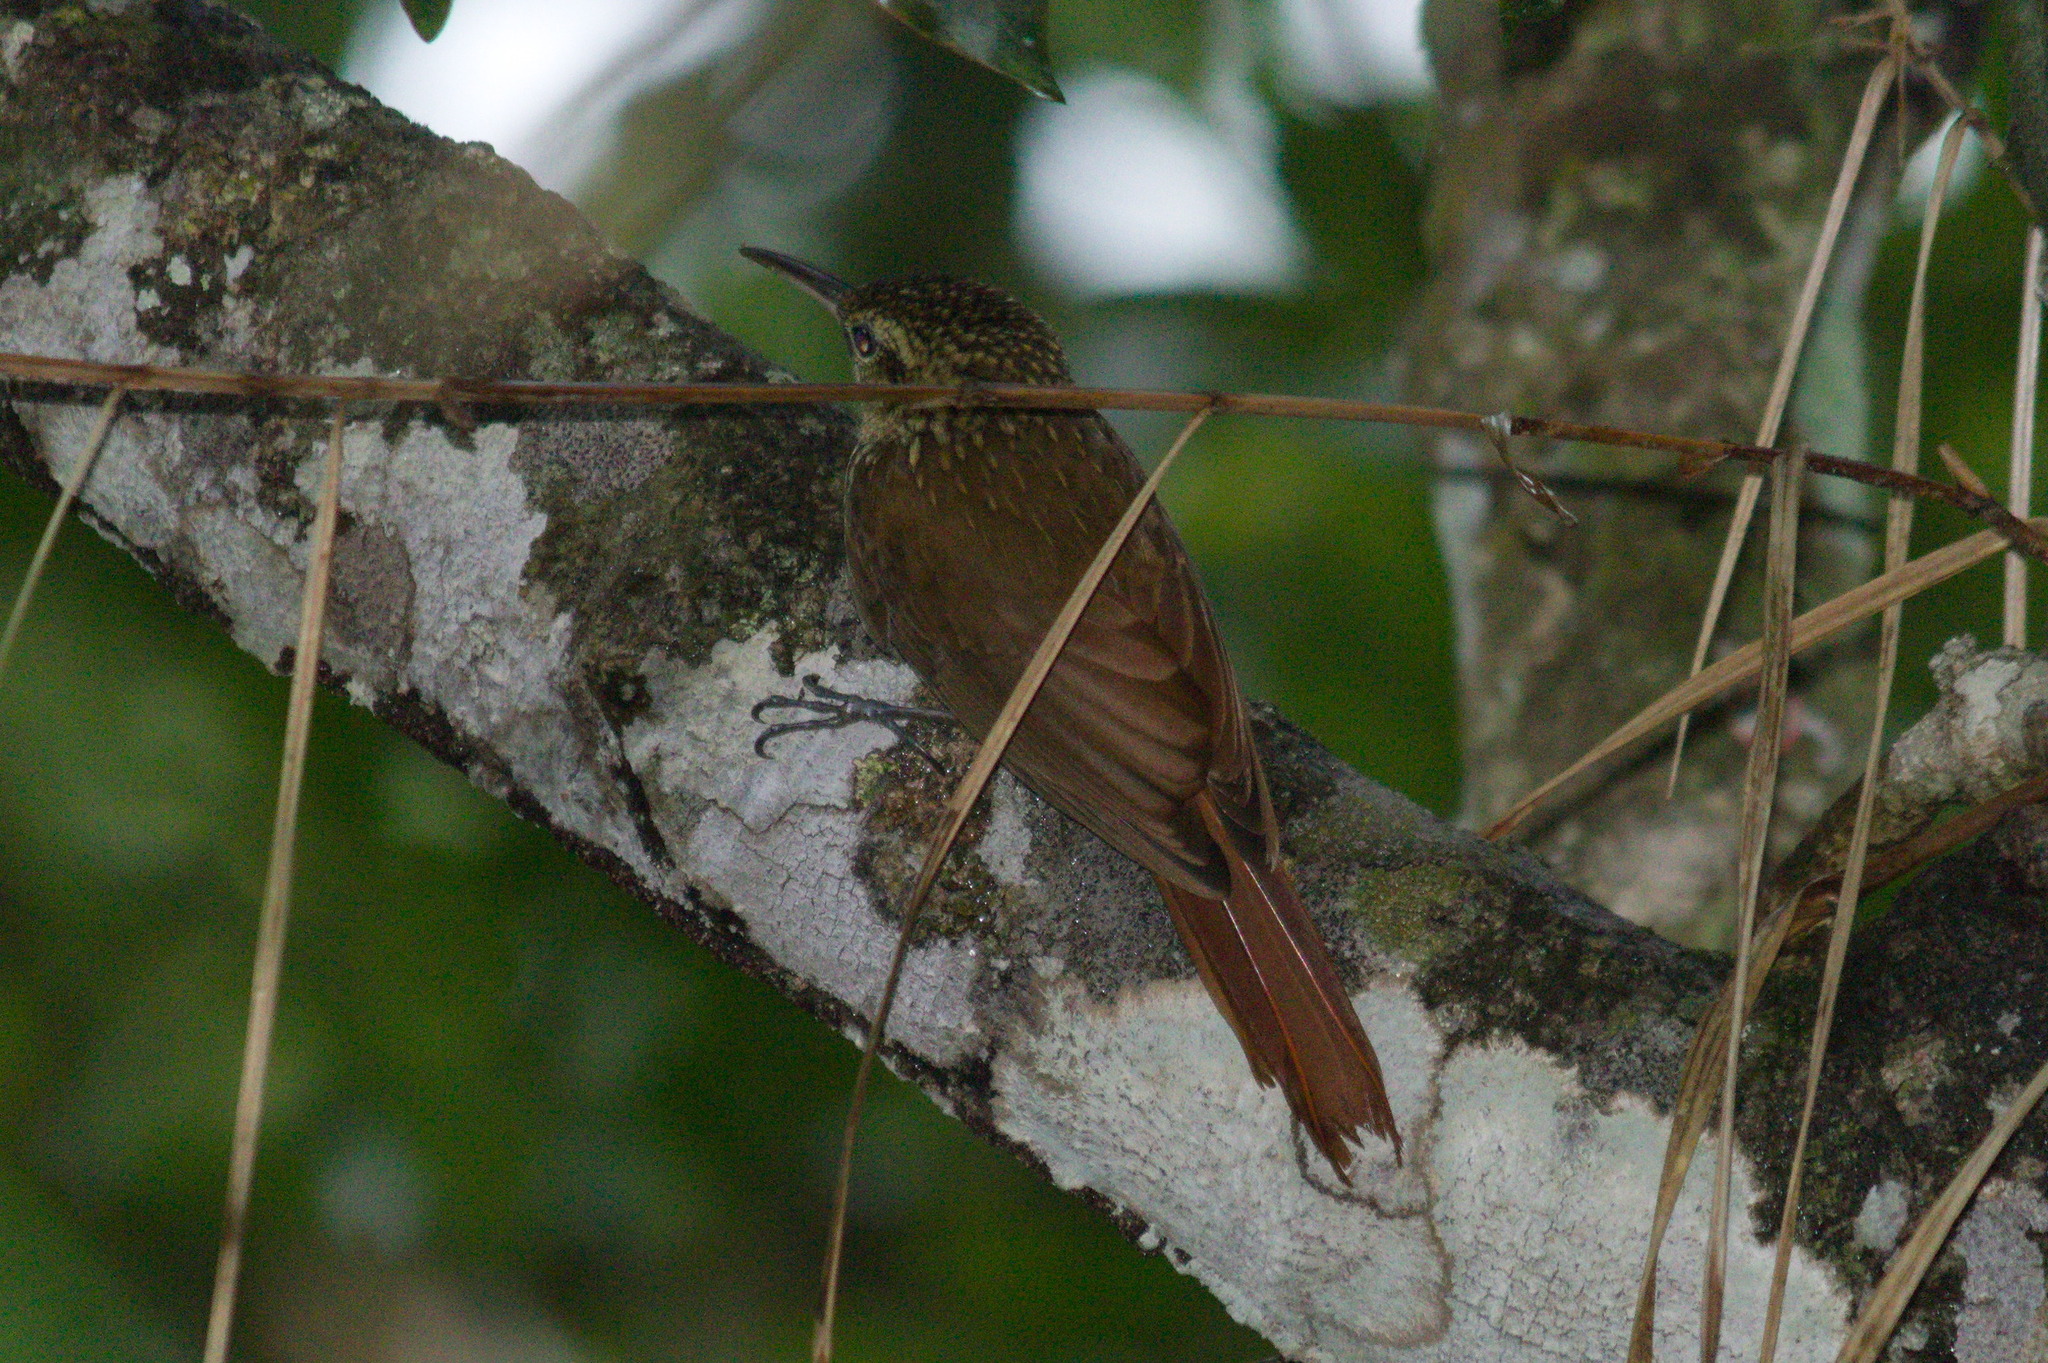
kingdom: Animalia
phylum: Chordata
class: Aves
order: Passeriformes
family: Furnariidae
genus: Xiphorhynchus
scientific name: Xiphorhynchus fuscus
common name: Lesser woodcreeper
